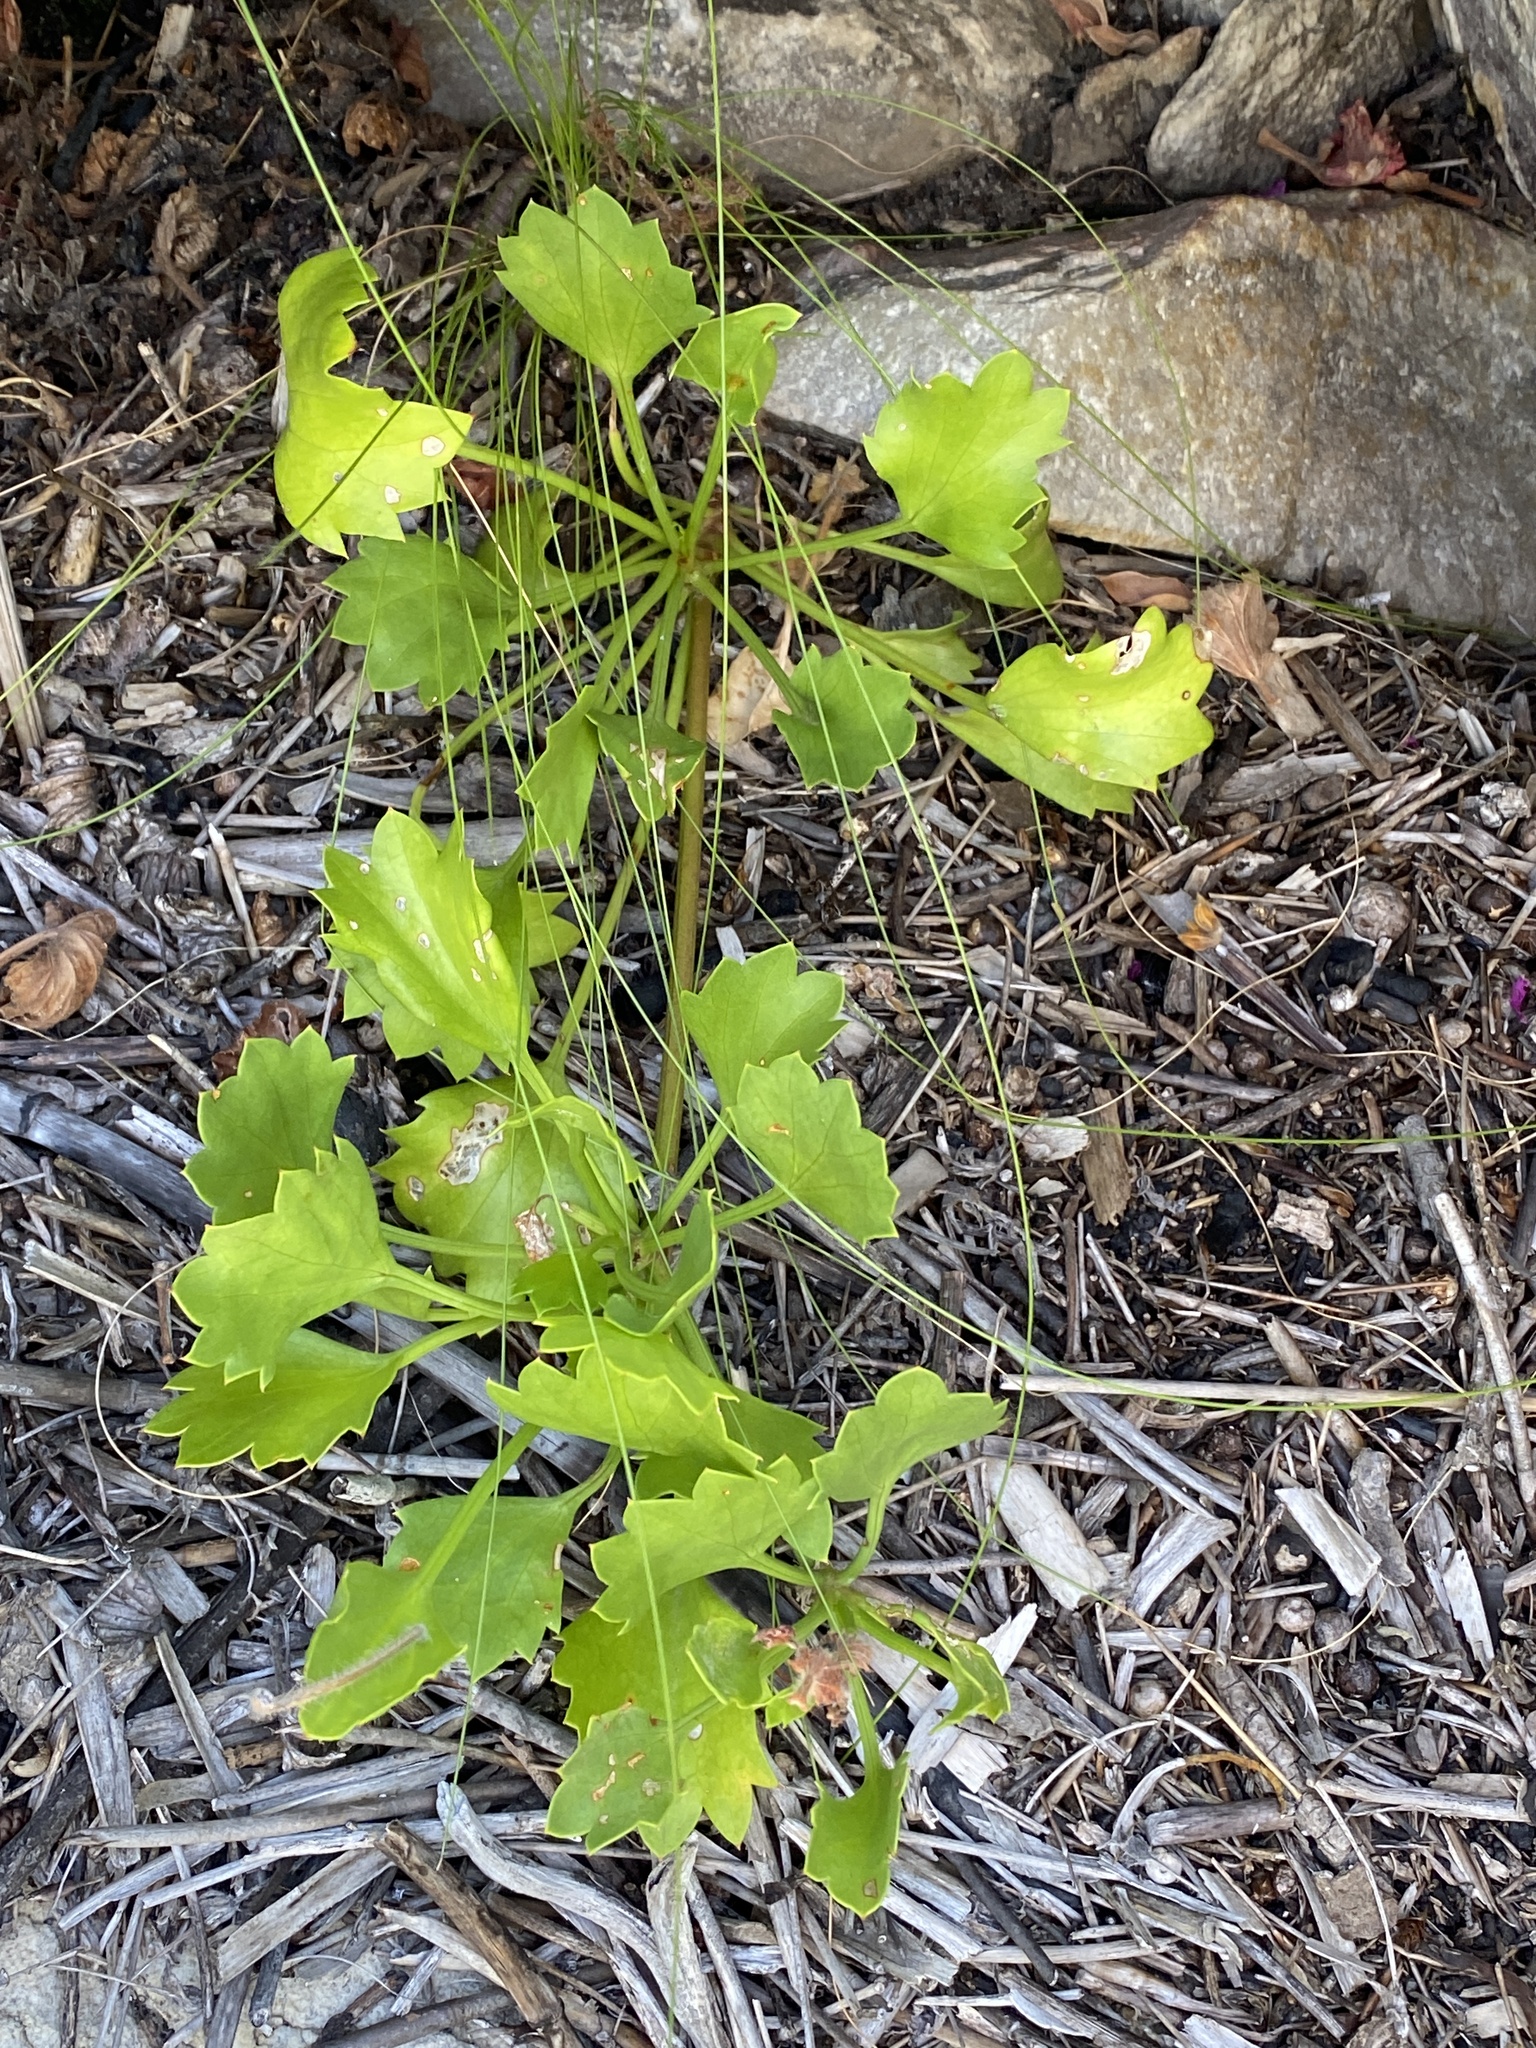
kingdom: Plantae
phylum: Tracheophyta
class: Magnoliopsida
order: Apiales
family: Apiaceae
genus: Centella
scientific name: Centella triloba
